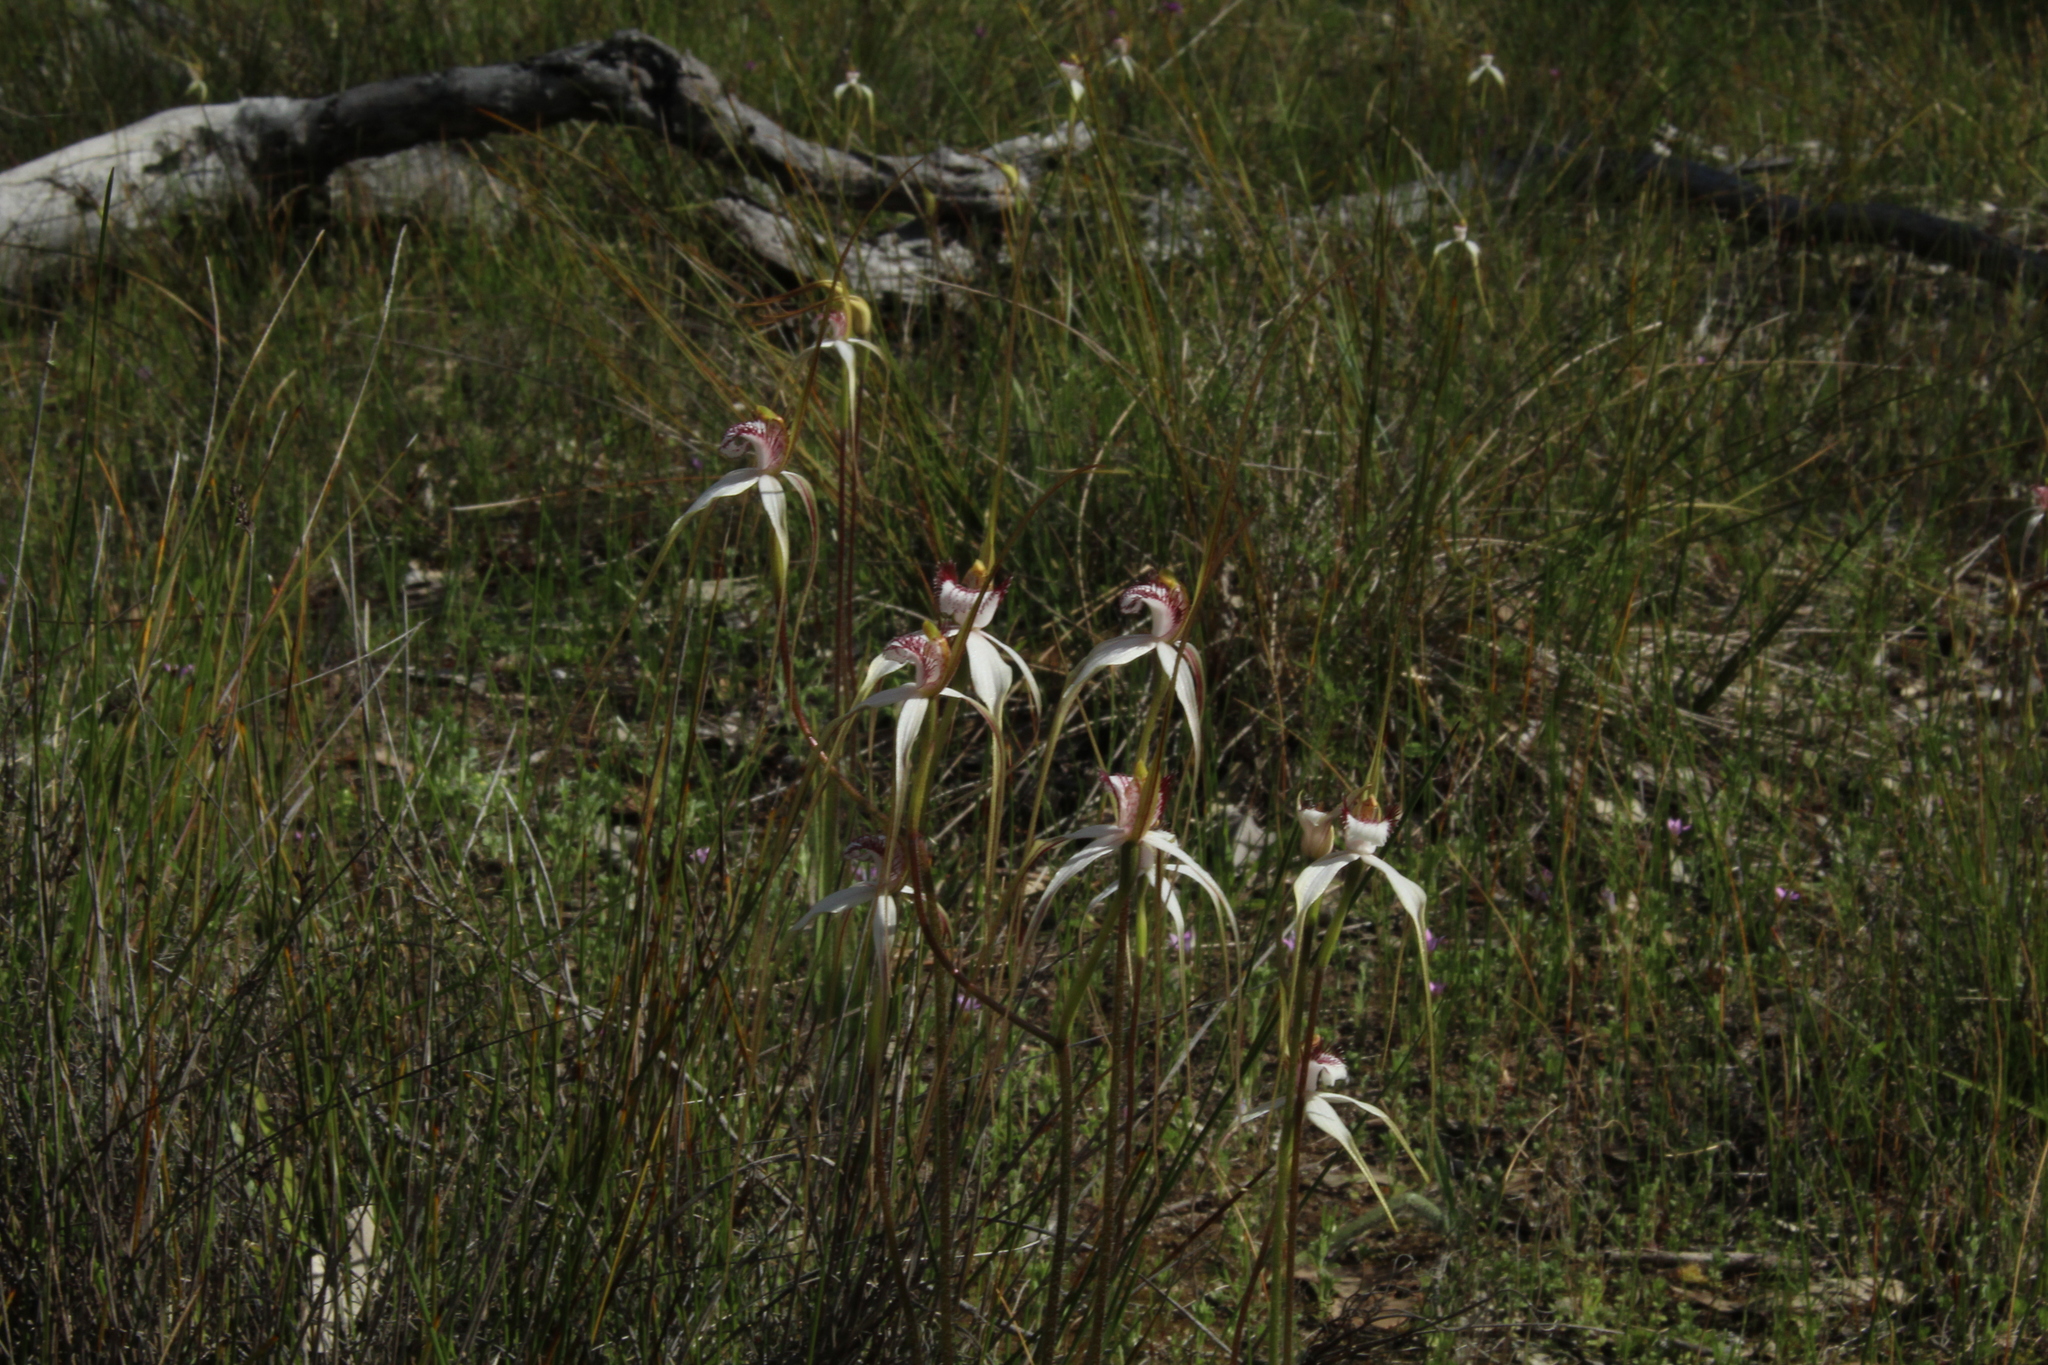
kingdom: Plantae
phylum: Tracheophyta
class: Liliopsida
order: Asparagales
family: Orchidaceae
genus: Caladenia
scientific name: Caladenia longicauda
